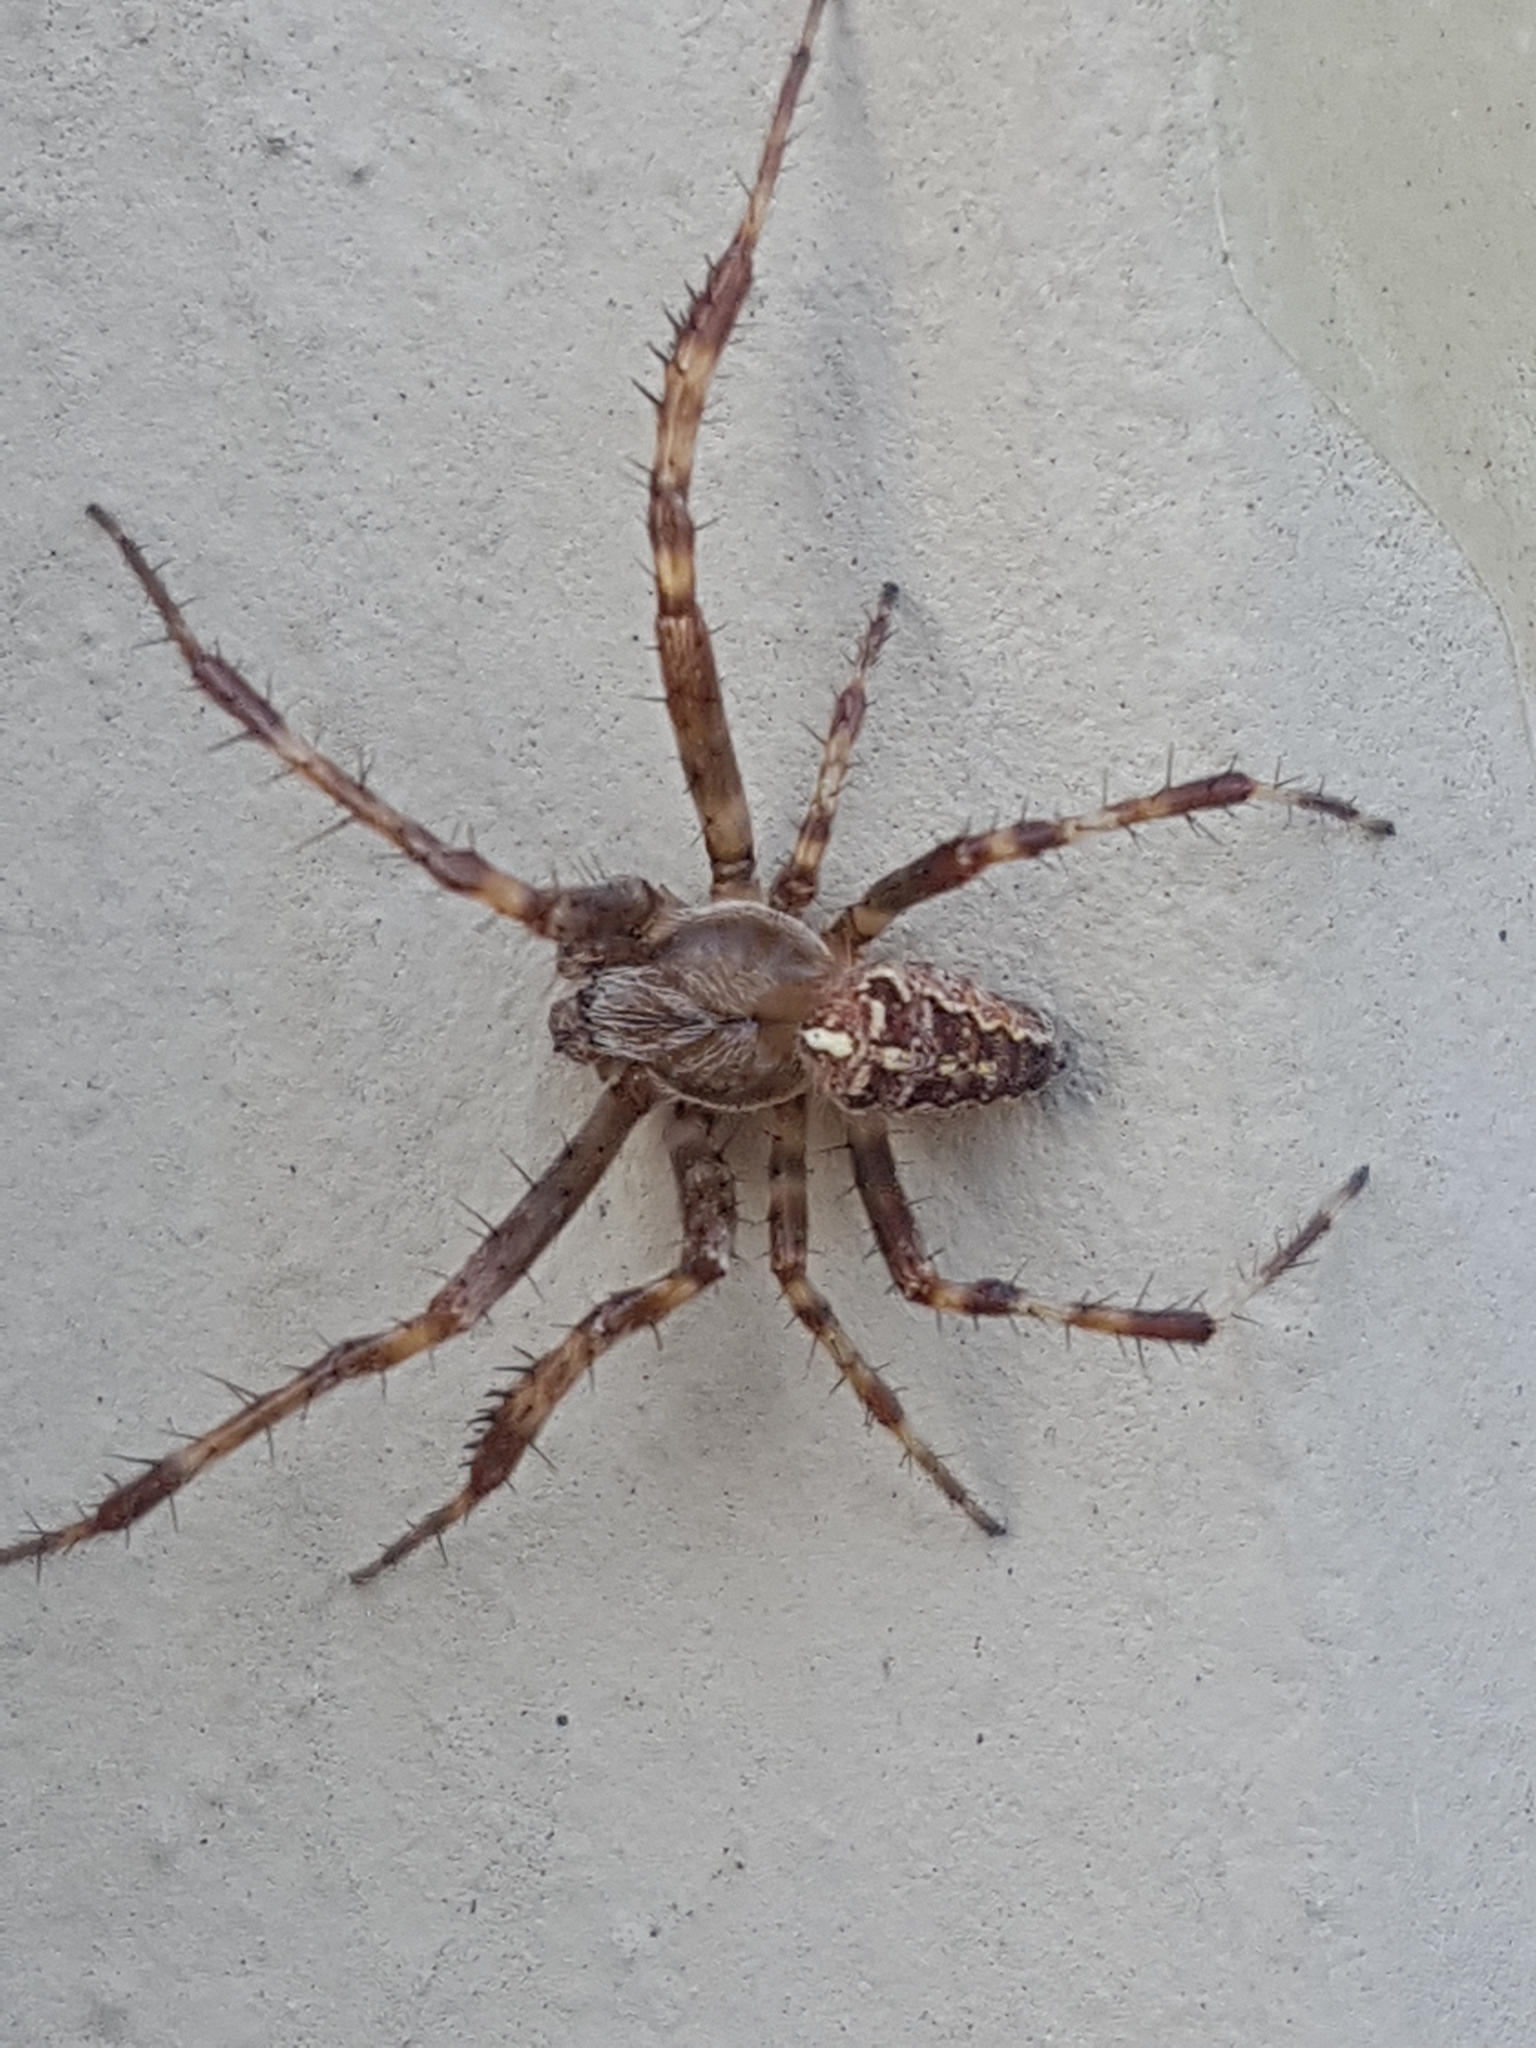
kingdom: Animalia
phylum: Arthropoda
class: Arachnida
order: Araneae
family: Araneidae
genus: Araneus
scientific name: Araneus diadematus
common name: Cross orbweaver
